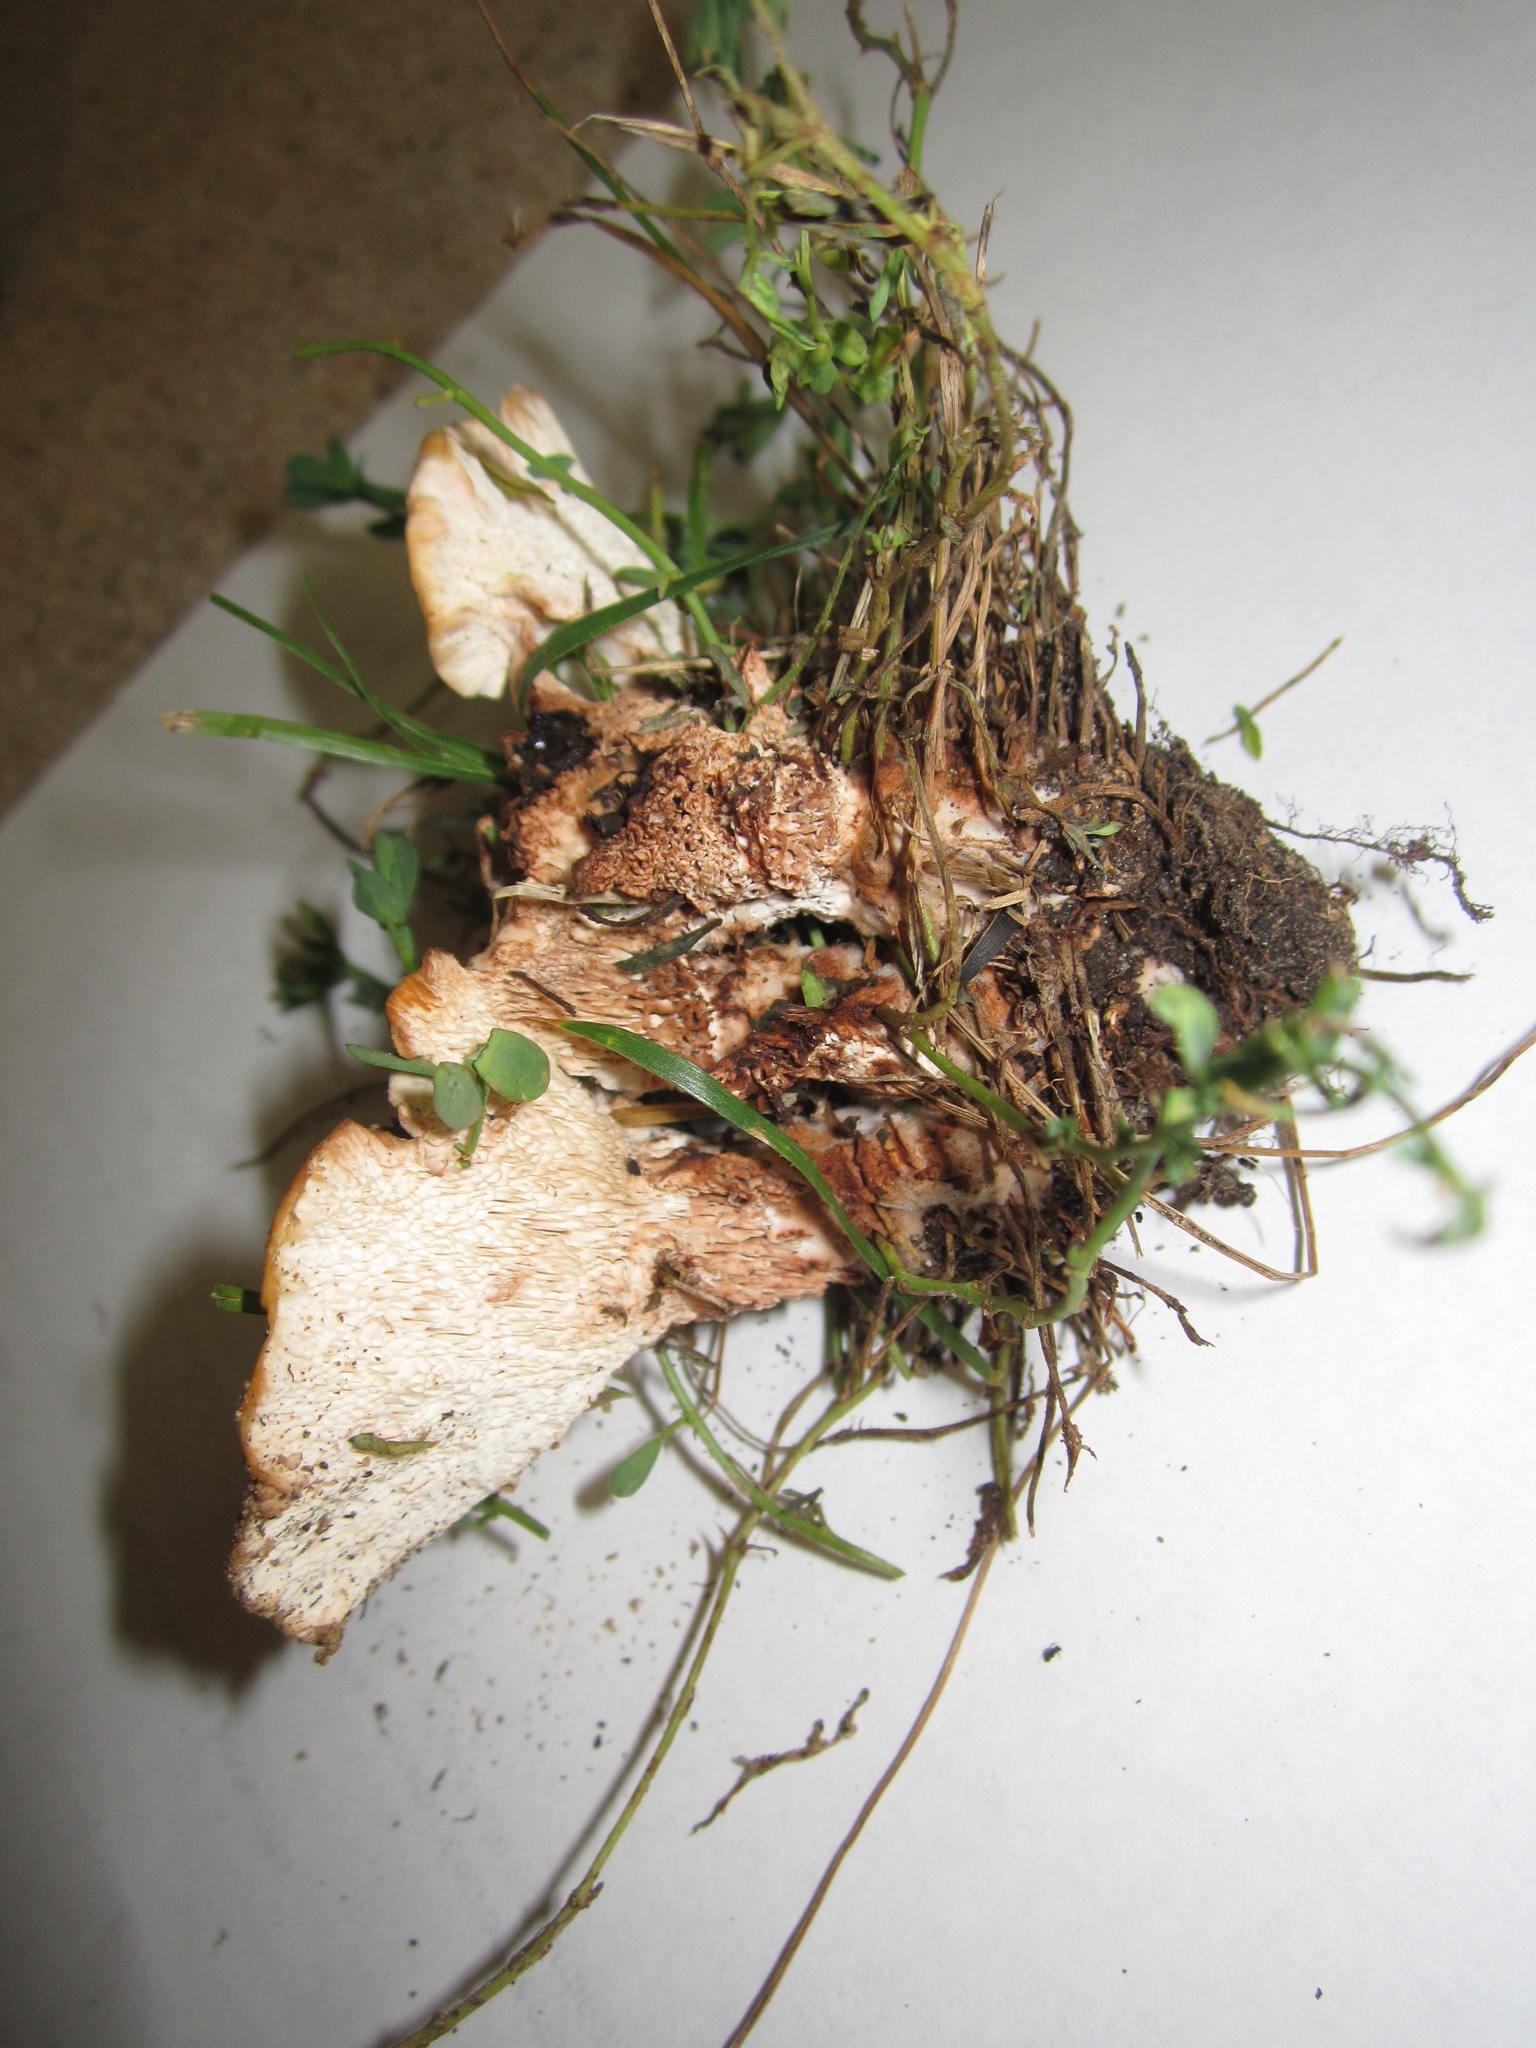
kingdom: Fungi
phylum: Basidiomycota
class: Agaricomycetes
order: Polyporales
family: Podoscyphaceae
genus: Abortiporus
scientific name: Abortiporus biennis
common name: Blushing rosette
